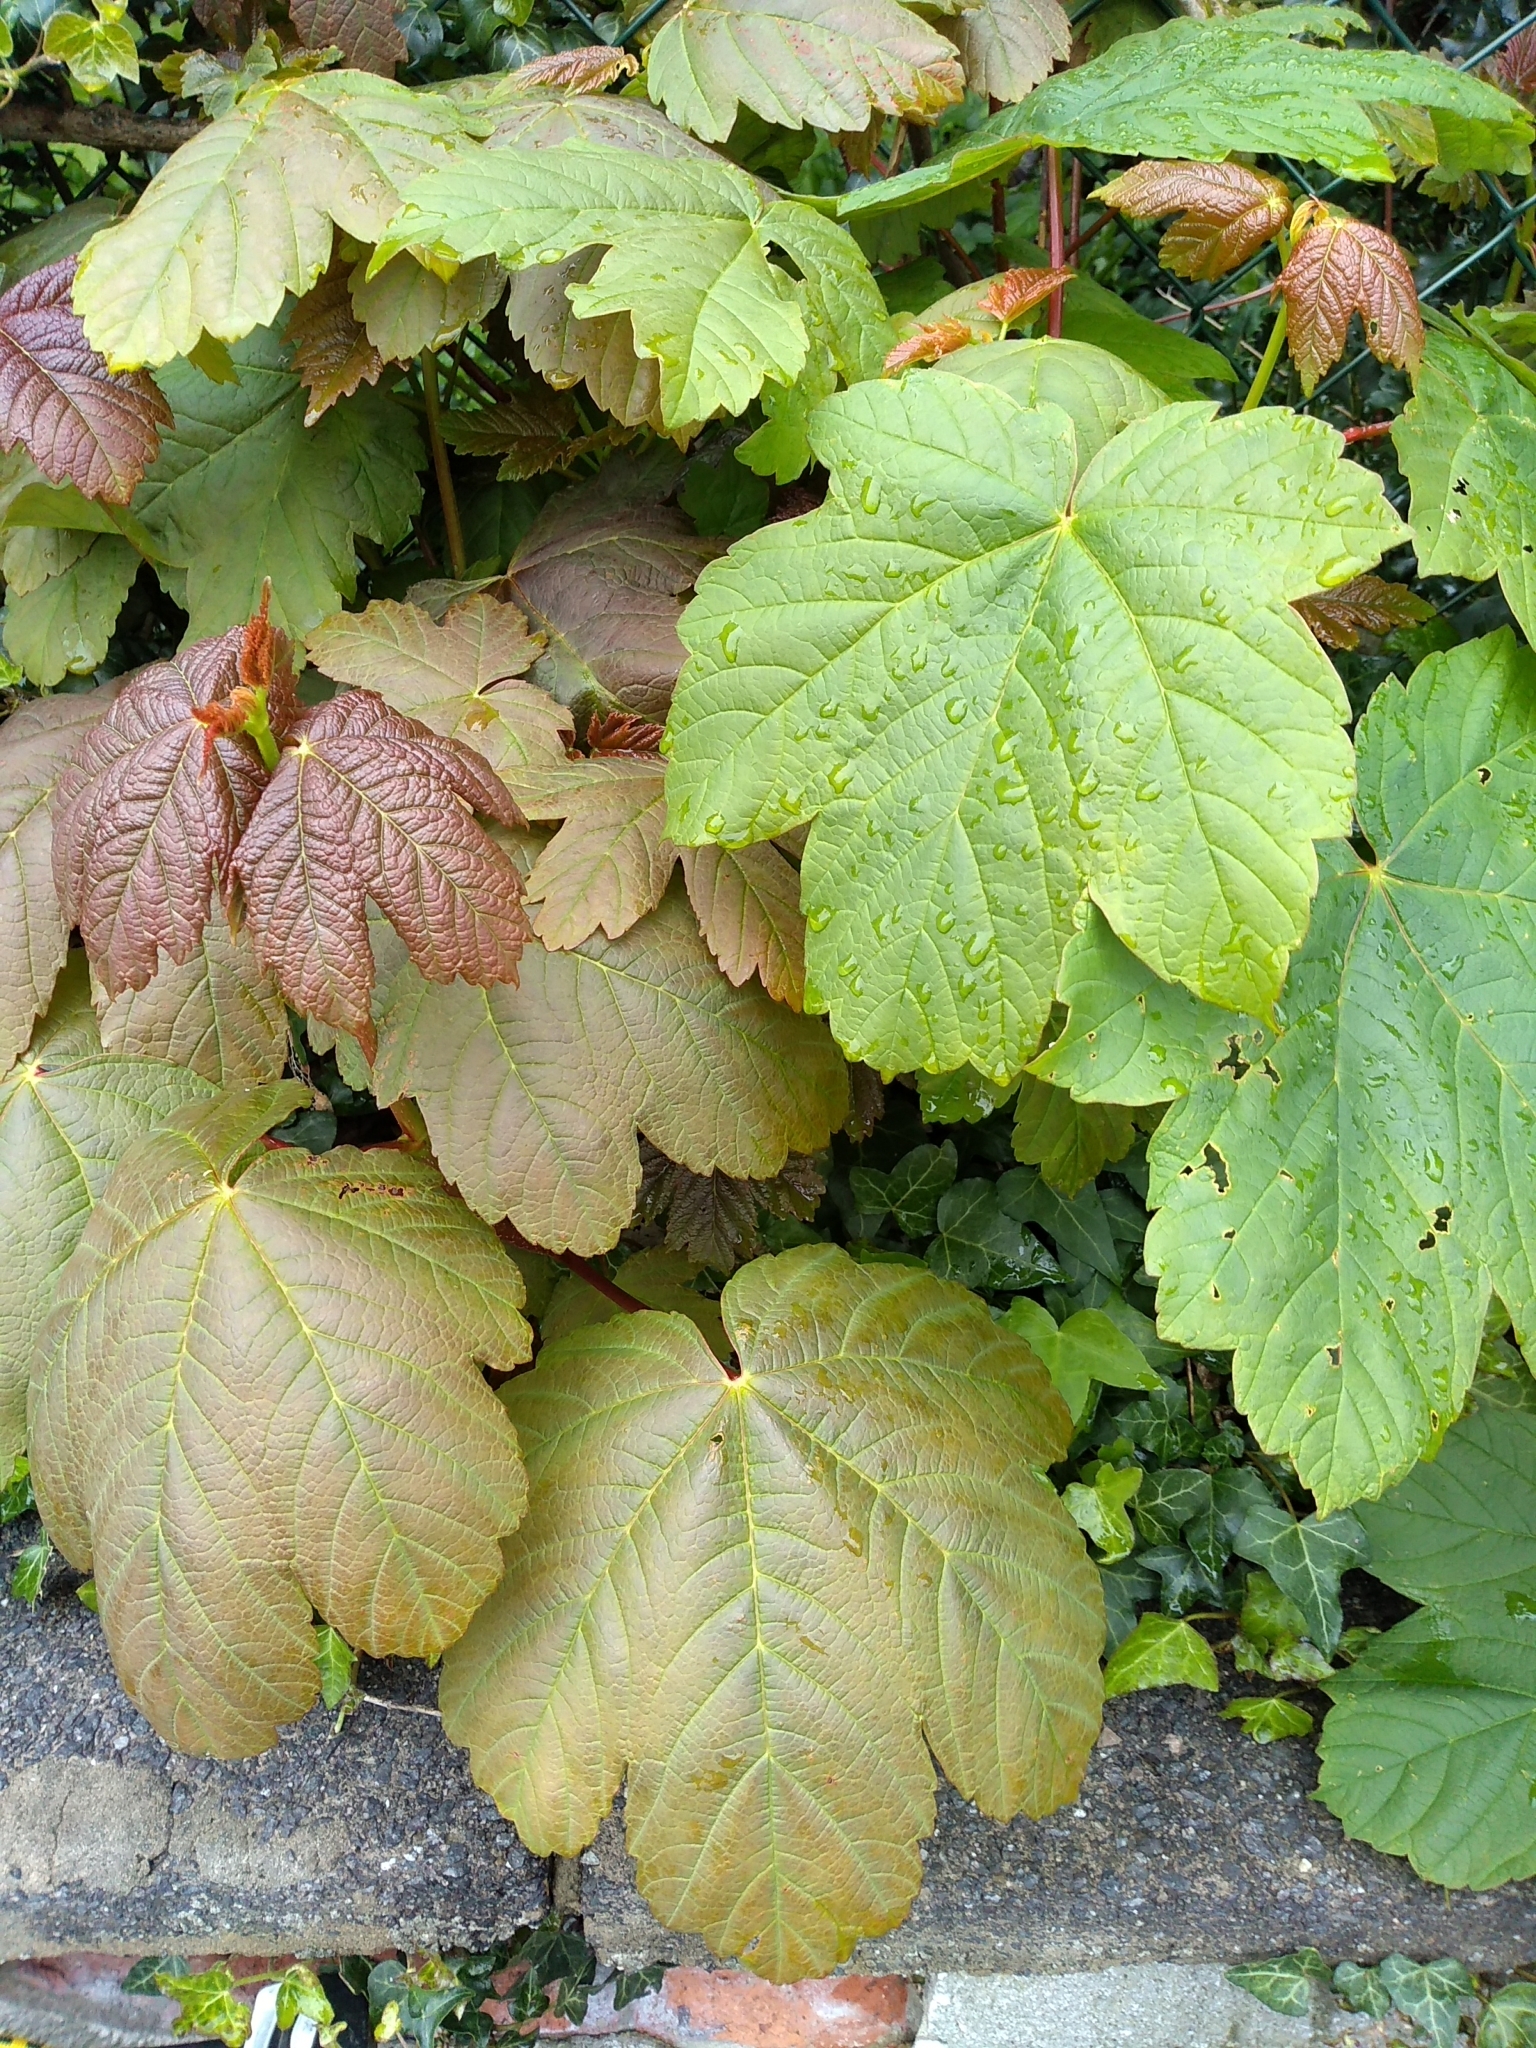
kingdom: Plantae
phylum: Tracheophyta
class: Magnoliopsida
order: Sapindales
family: Sapindaceae
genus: Acer
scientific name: Acer pseudoplatanus
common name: Sycamore
